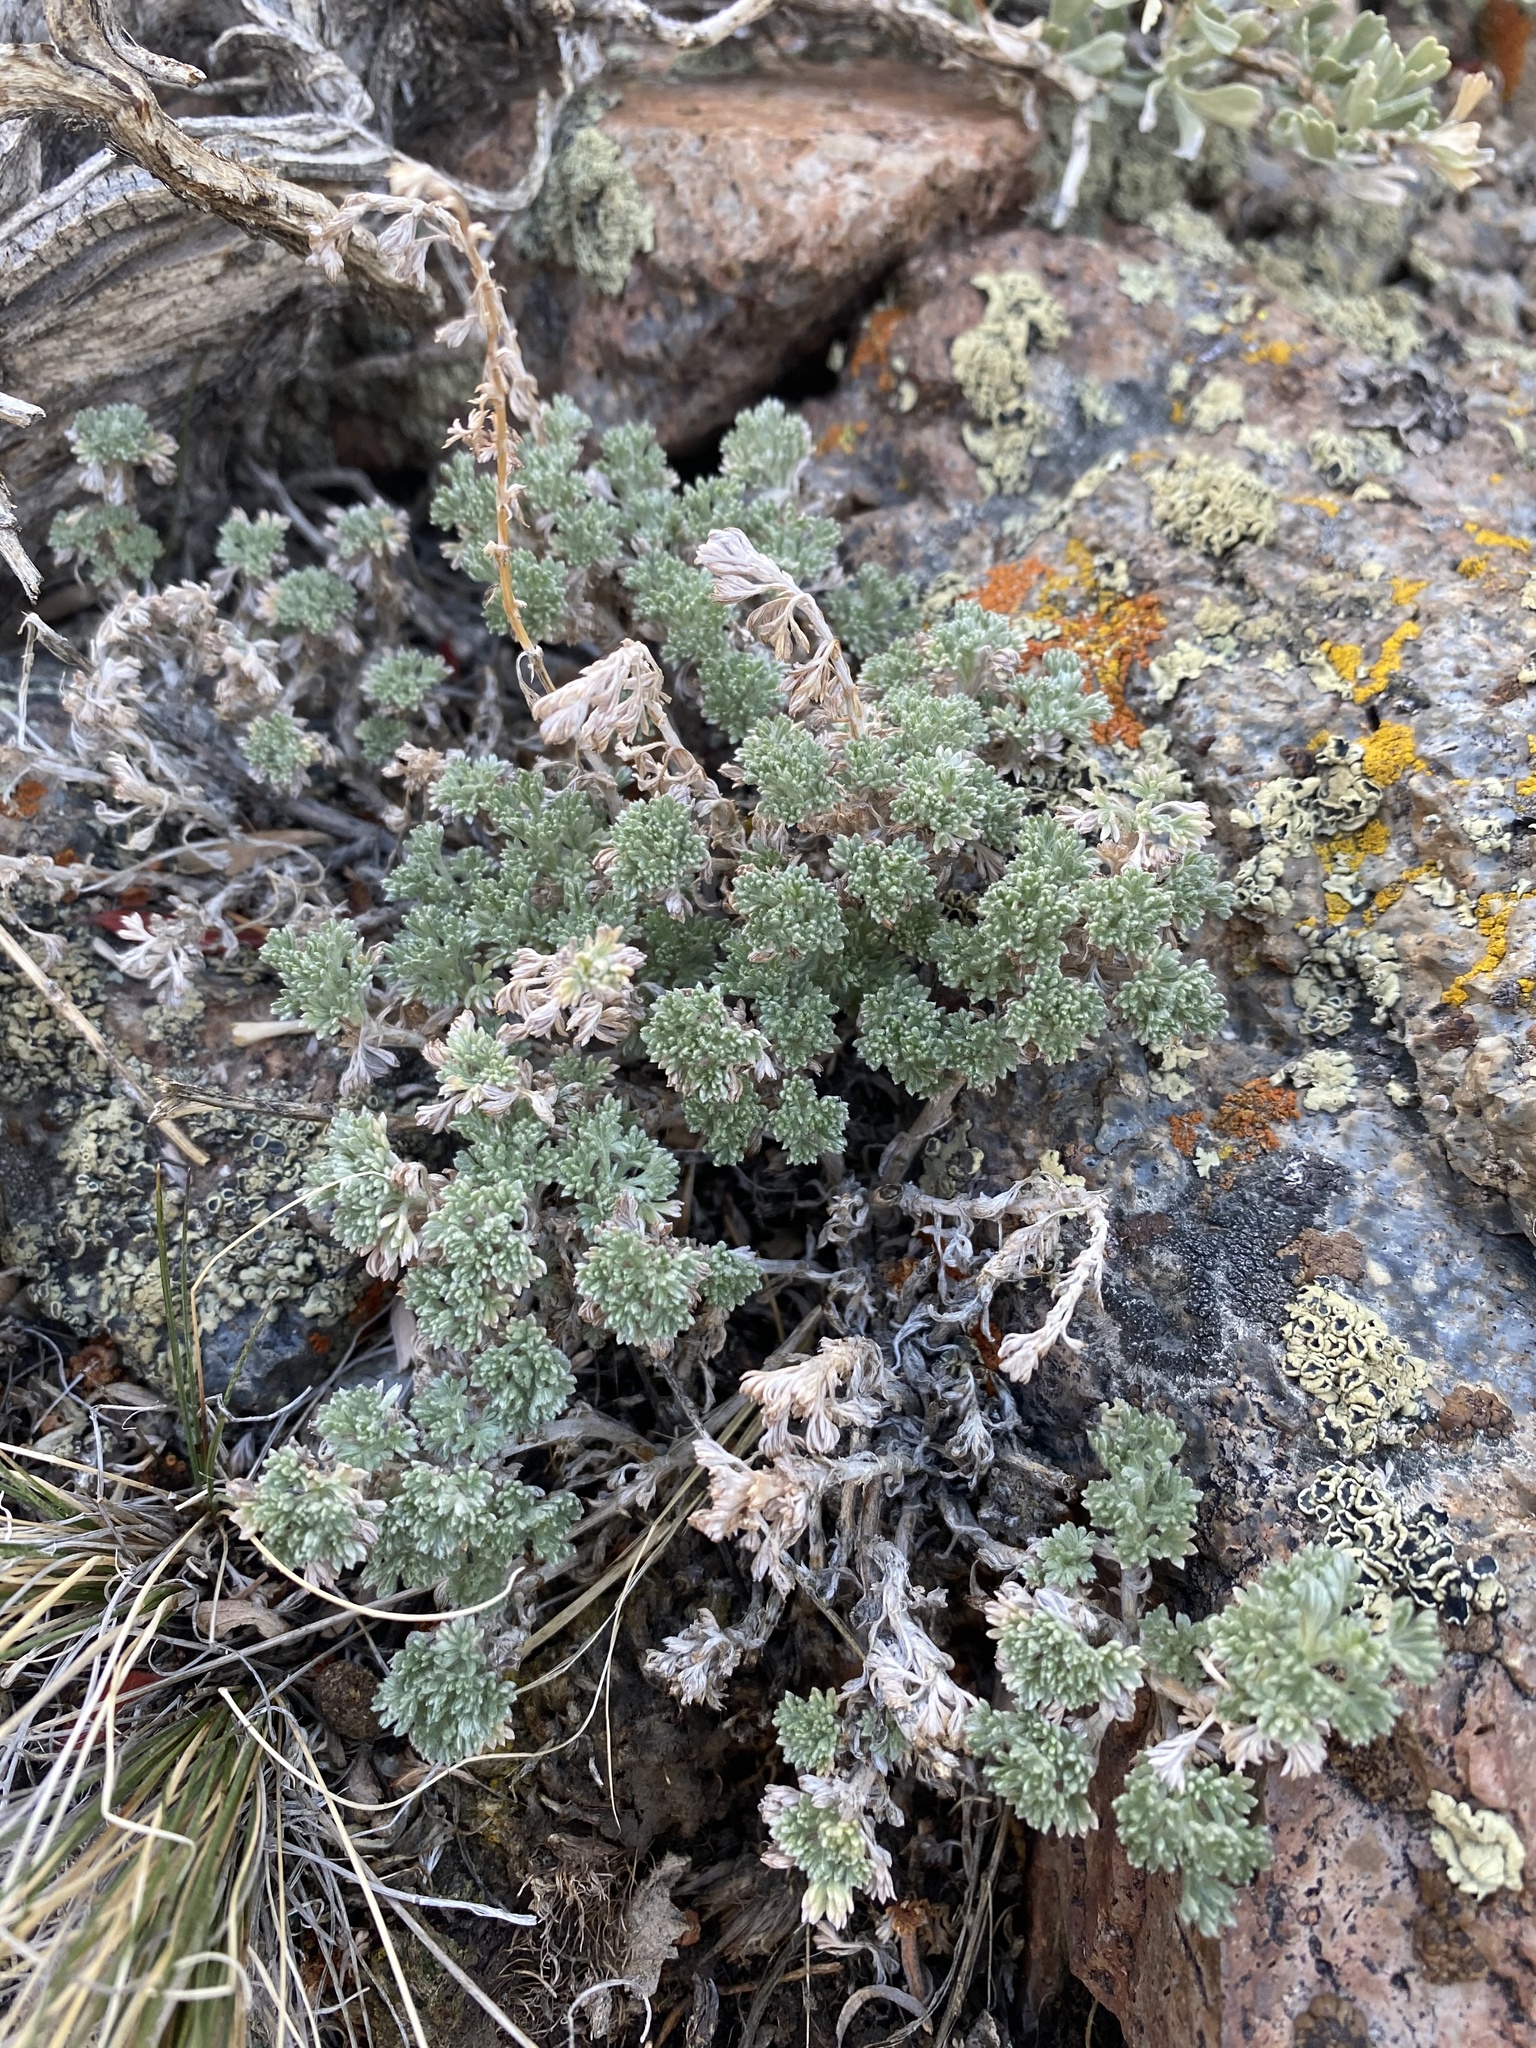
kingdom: Plantae
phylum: Tracheophyta
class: Magnoliopsida
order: Asterales
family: Asteraceae
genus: Artemisia
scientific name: Artemisia frigida
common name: Prairie sagewort
